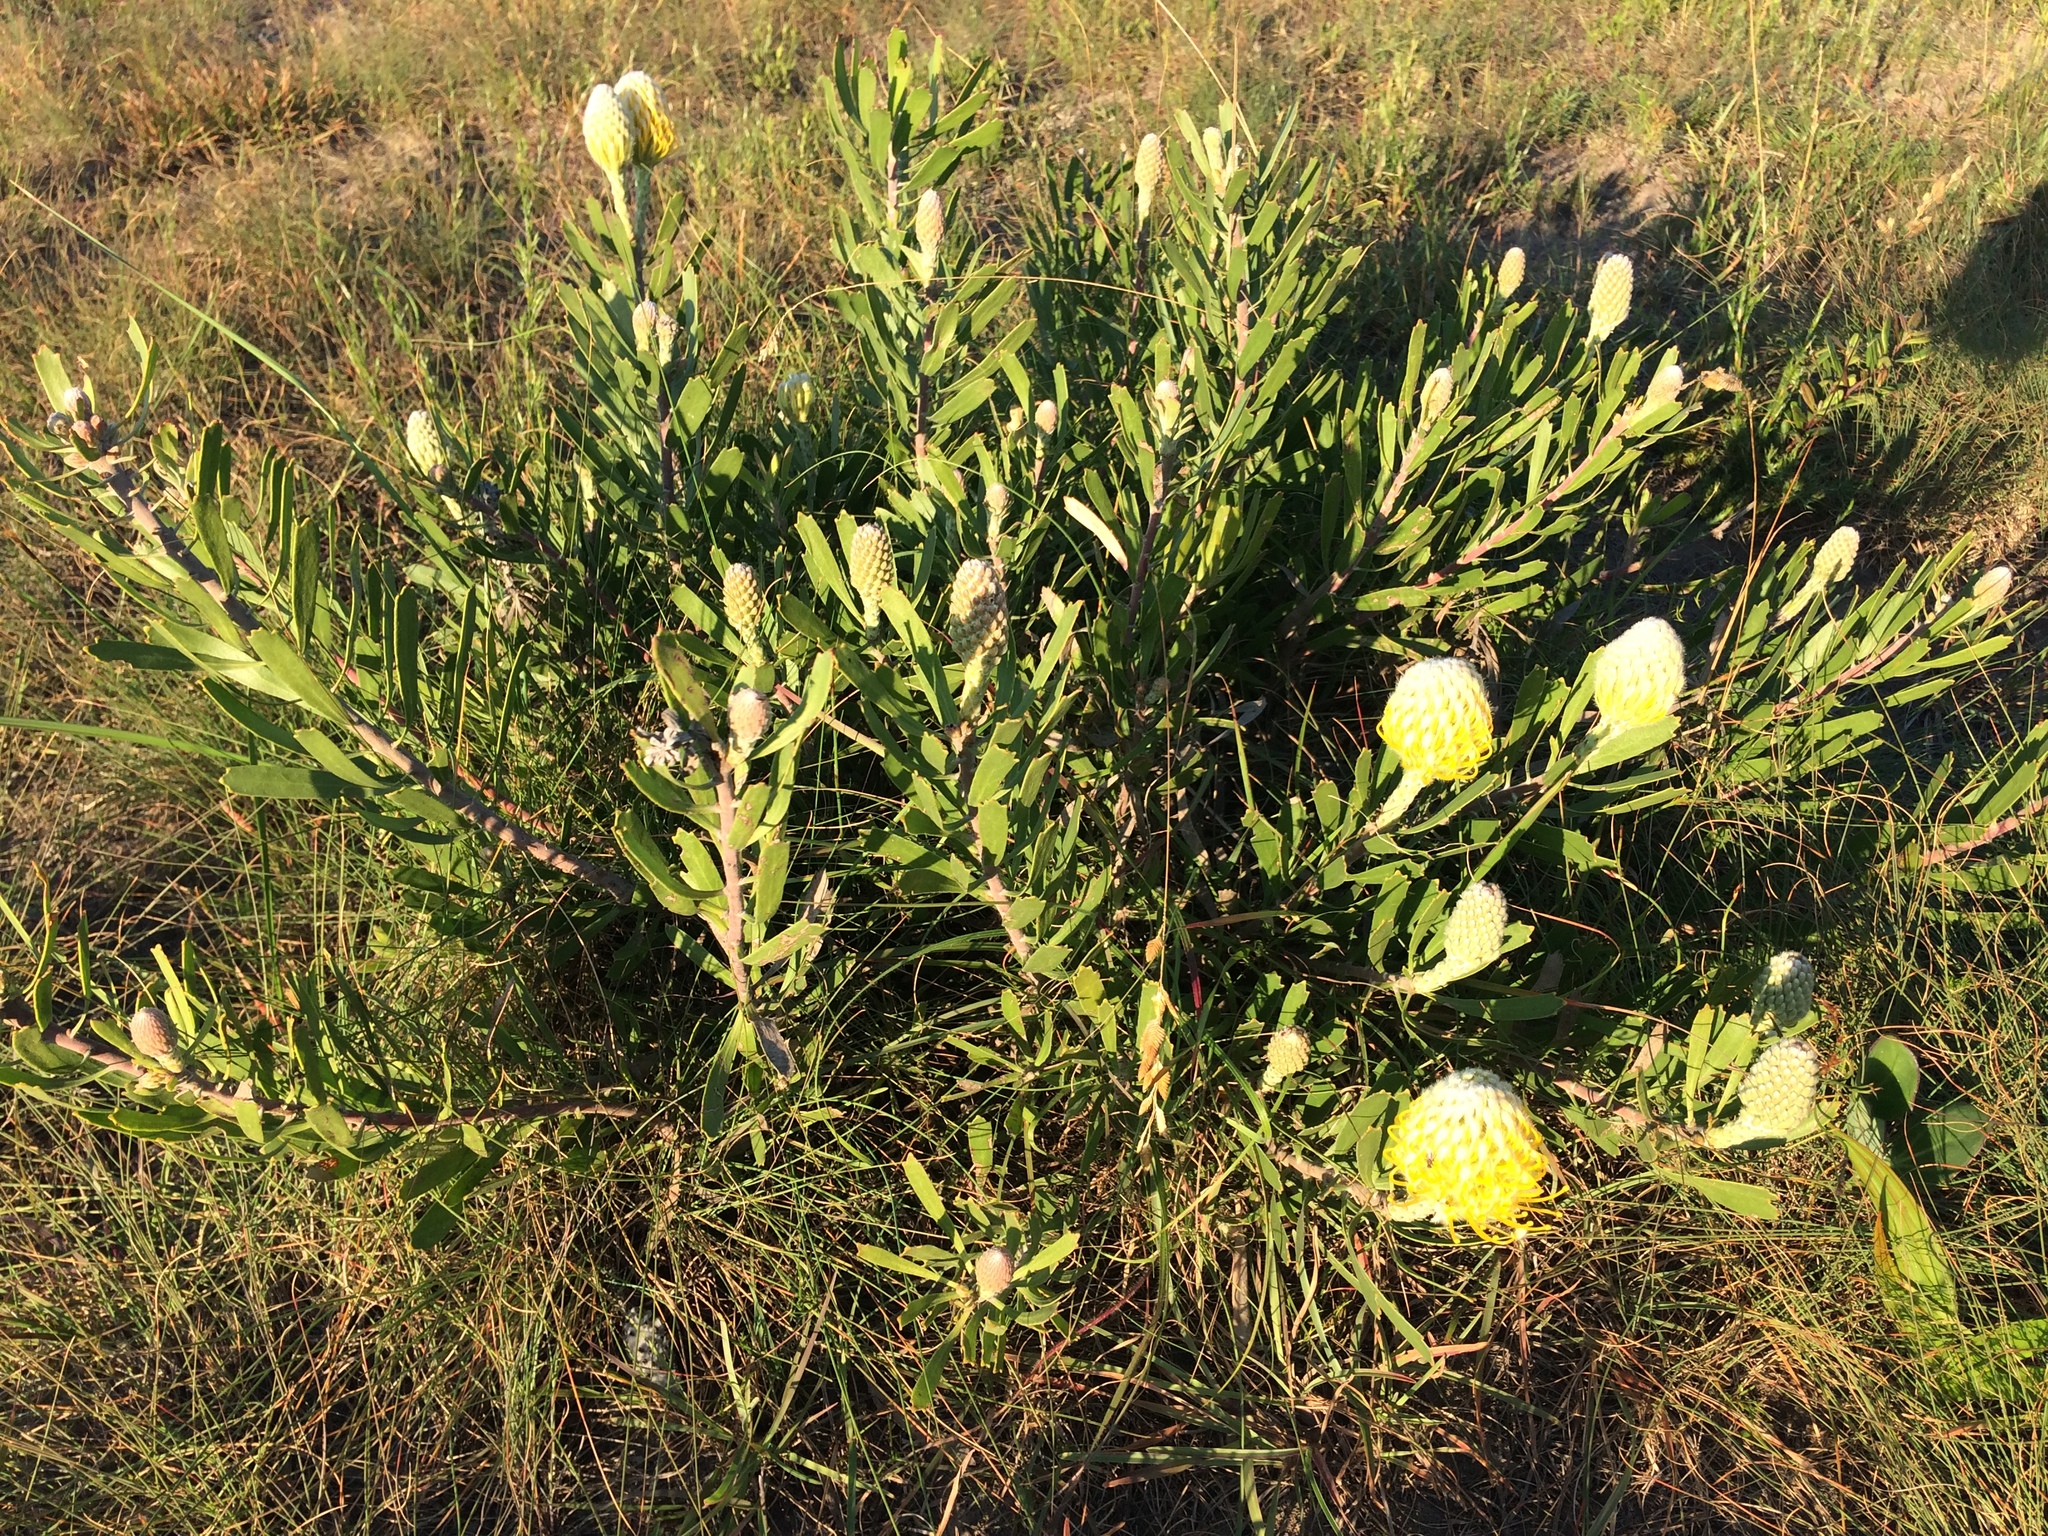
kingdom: Plantae
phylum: Tracheophyta
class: Magnoliopsida
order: Proteales
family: Proteaceae
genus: Leucospermum
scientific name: Leucospermum cuneiforme
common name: Common pincushion
